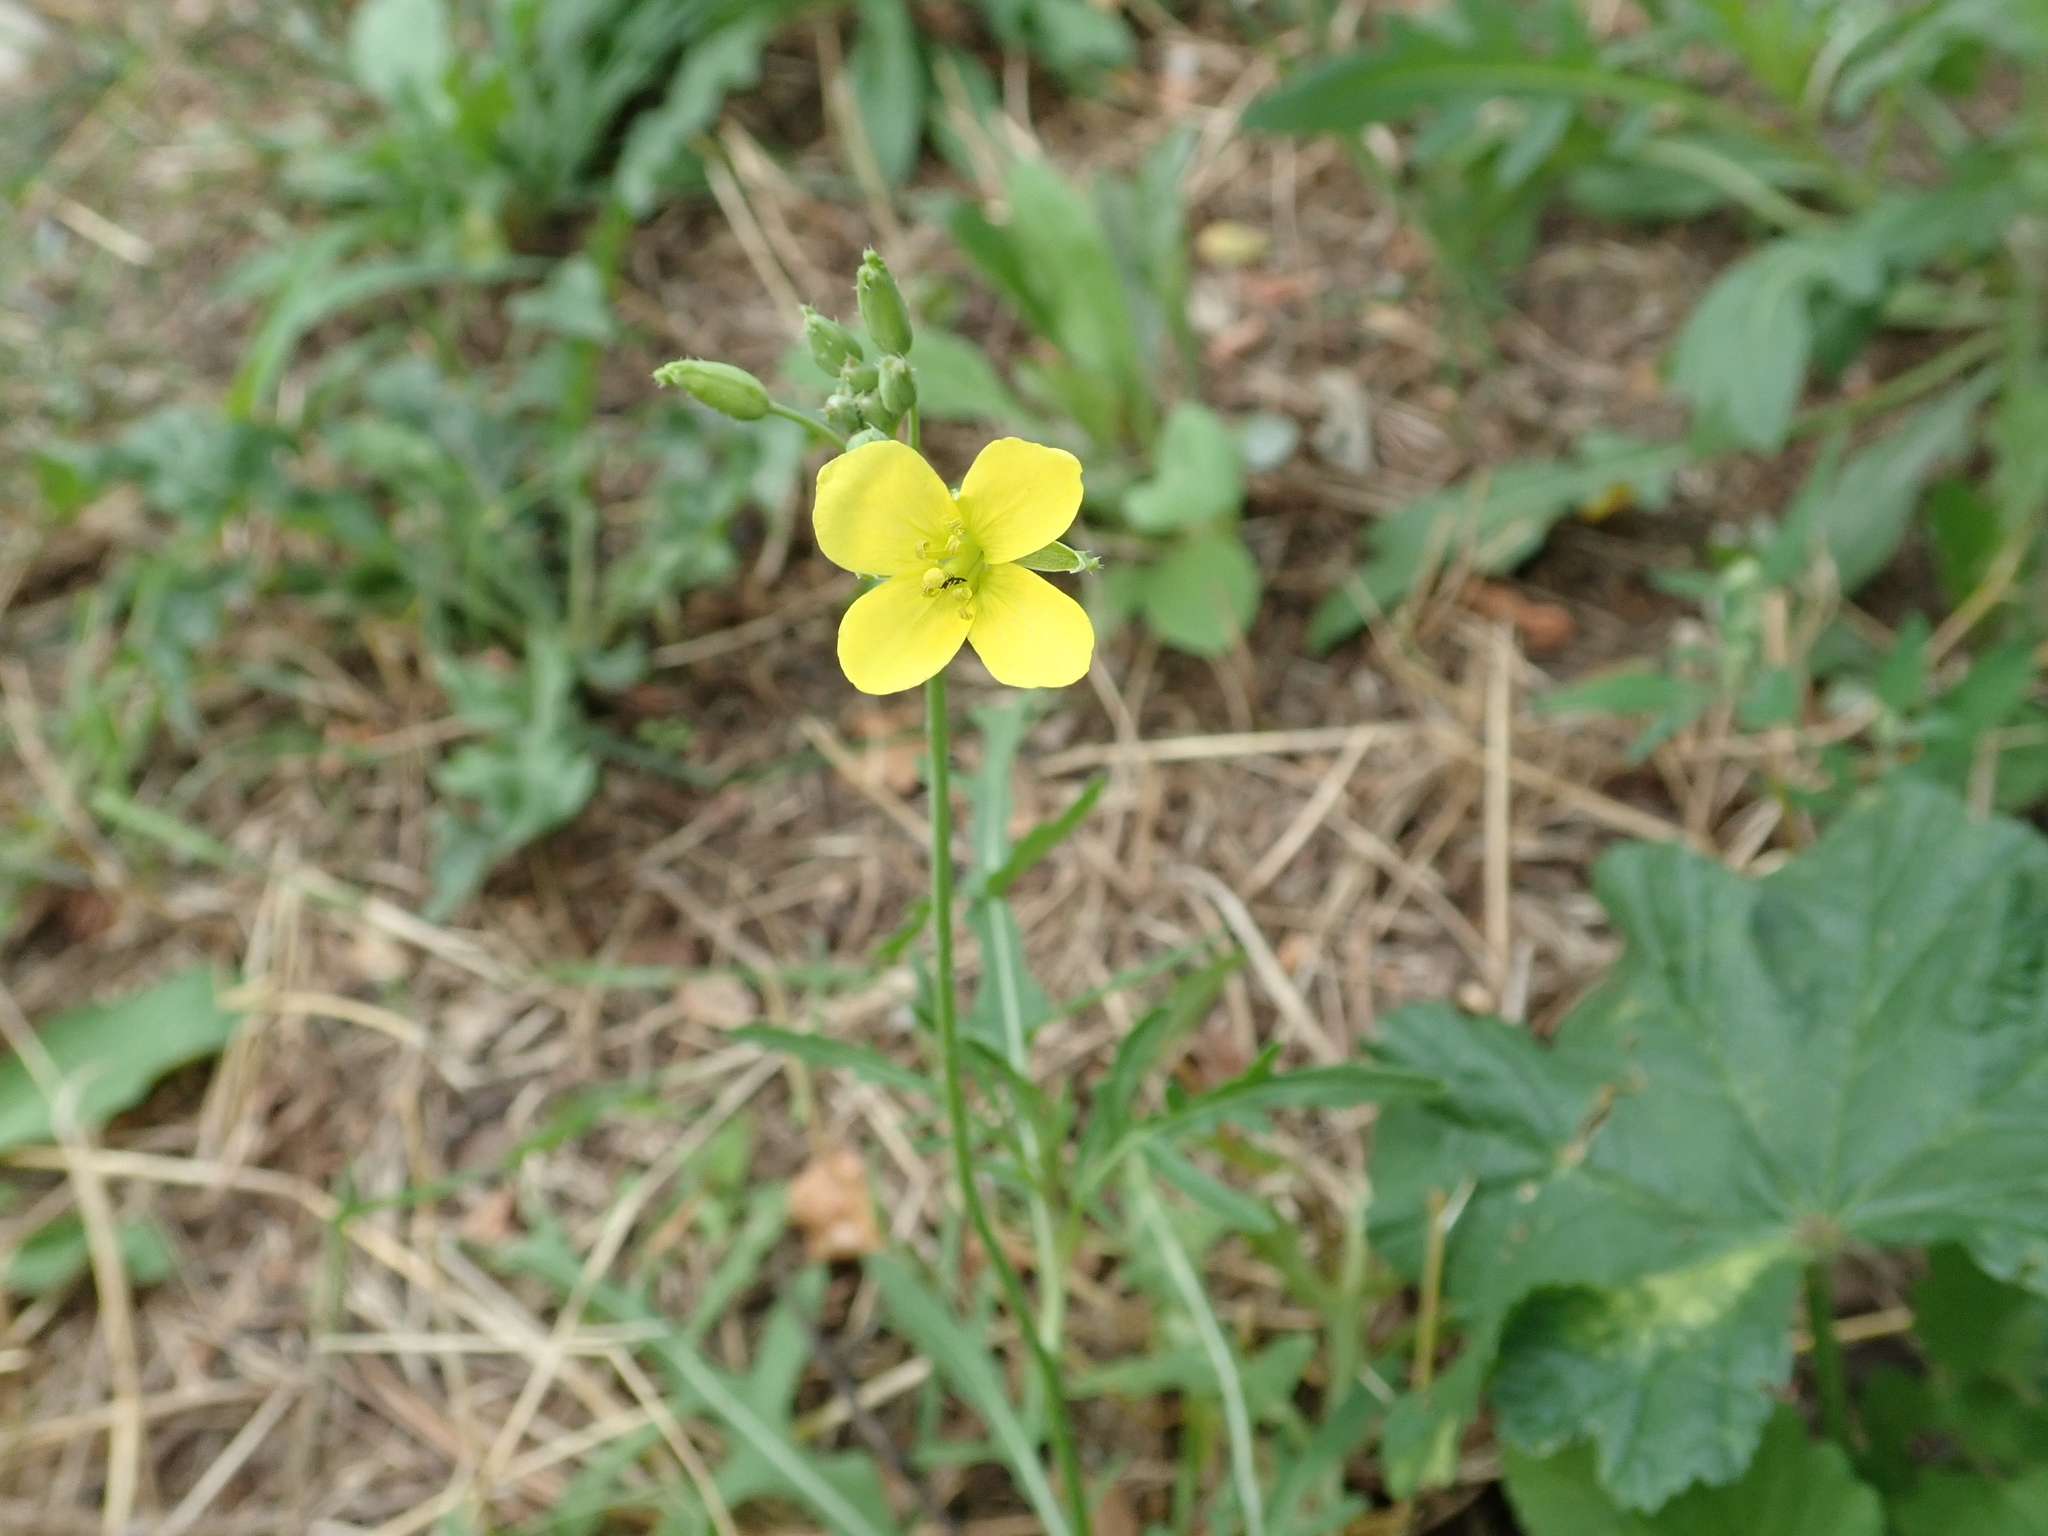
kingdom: Plantae
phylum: Tracheophyta
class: Magnoliopsida
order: Brassicales
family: Brassicaceae
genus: Diplotaxis
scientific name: Diplotaxis tenuifolia
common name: Perennial wall-rocket
